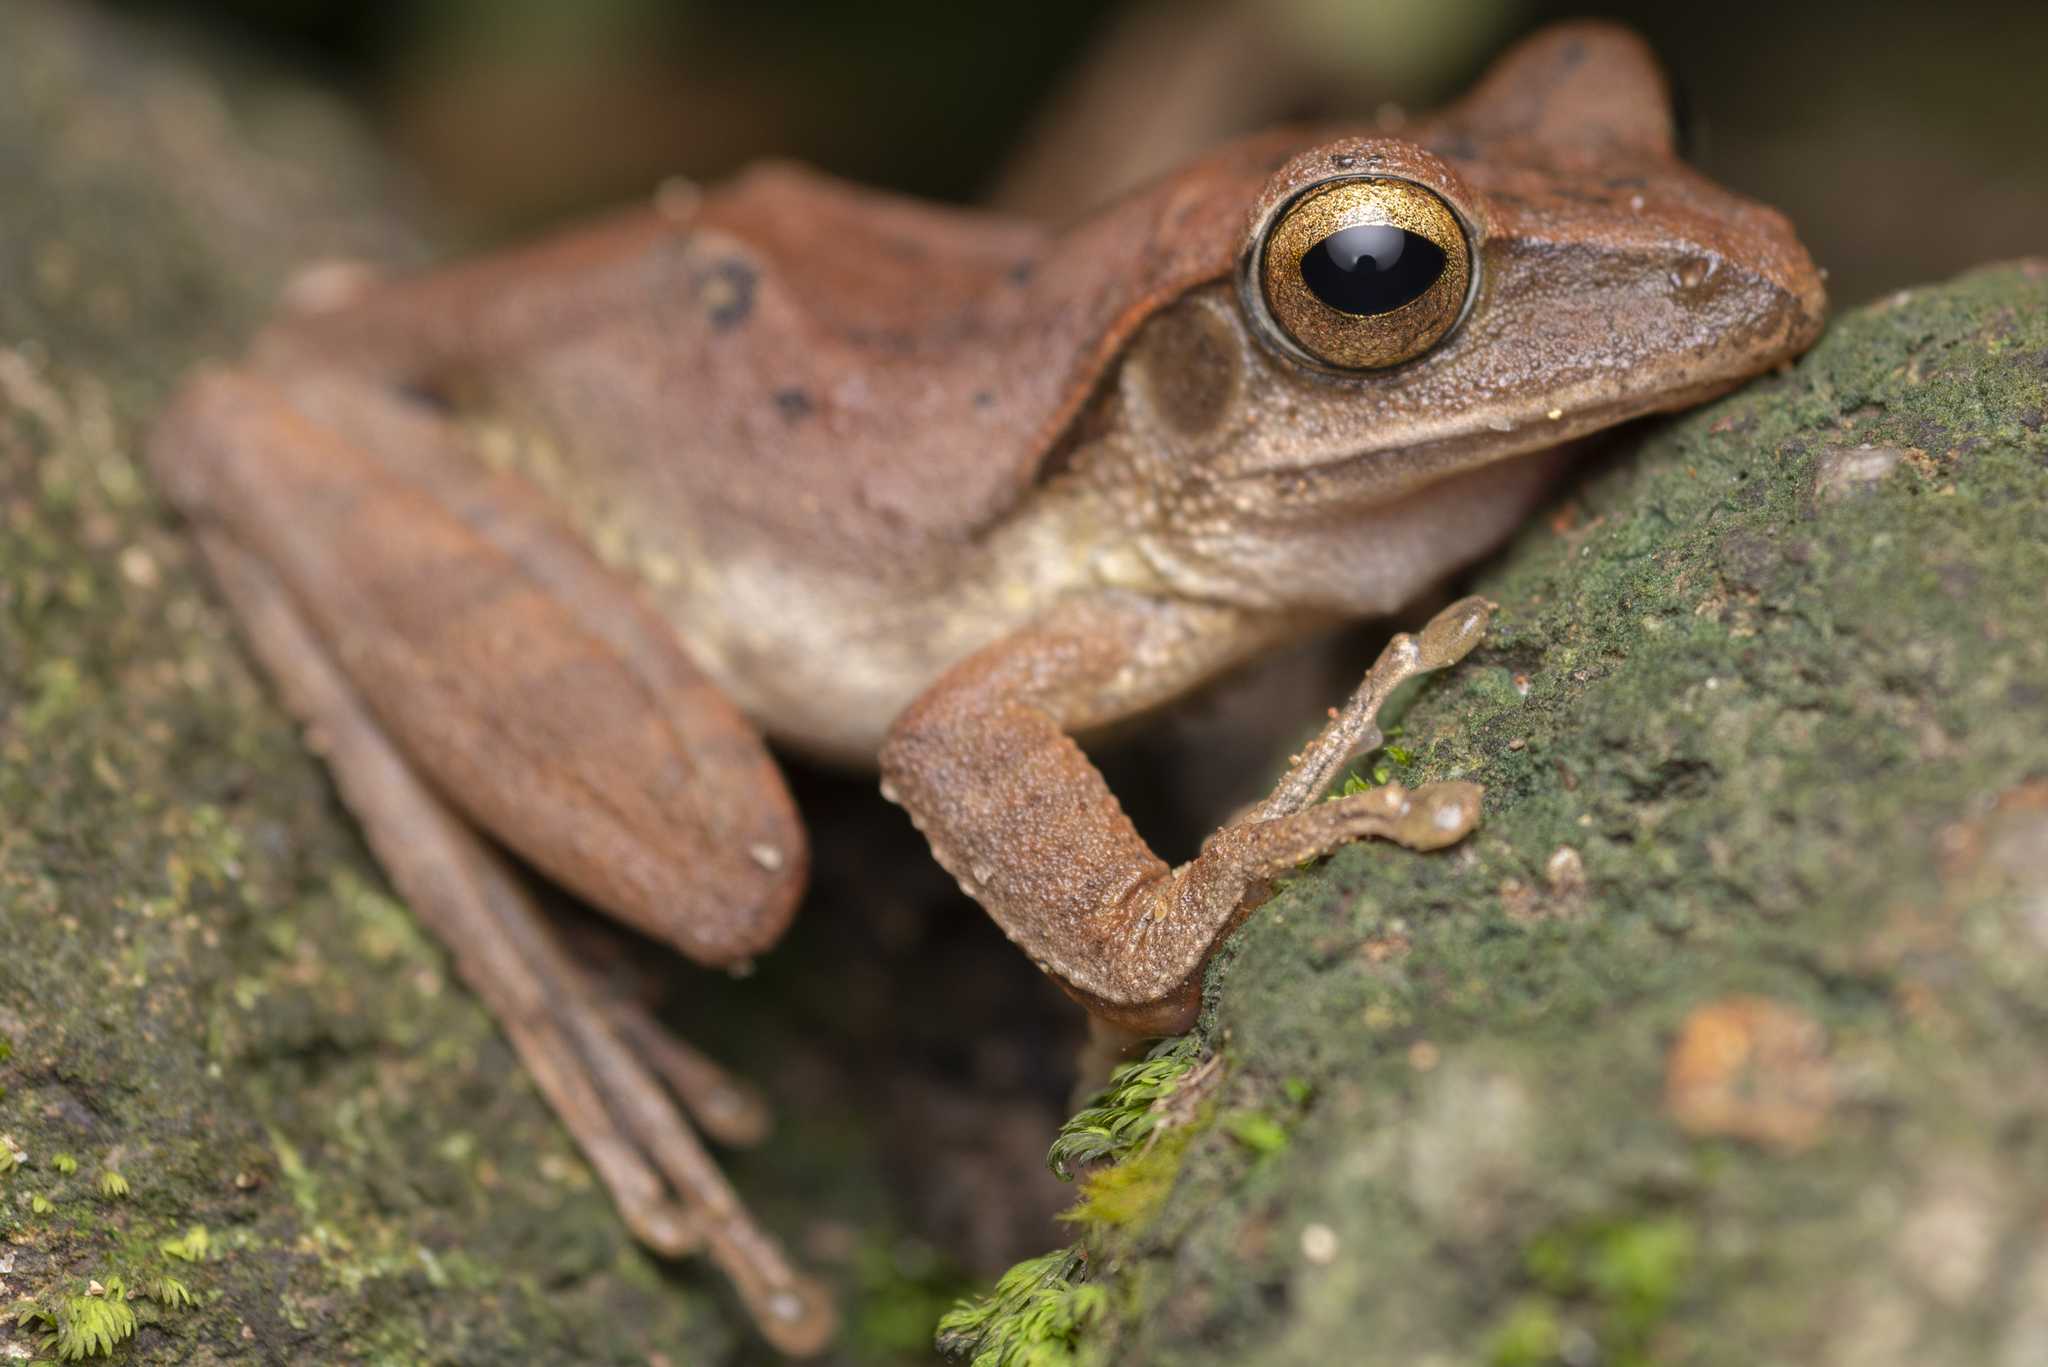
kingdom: Animalia
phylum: Chordata
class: Amphibia
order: Anura
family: Rhacophoridae
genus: Polypedates
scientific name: Polypedates megacephalus
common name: Hong kong whipping frog
